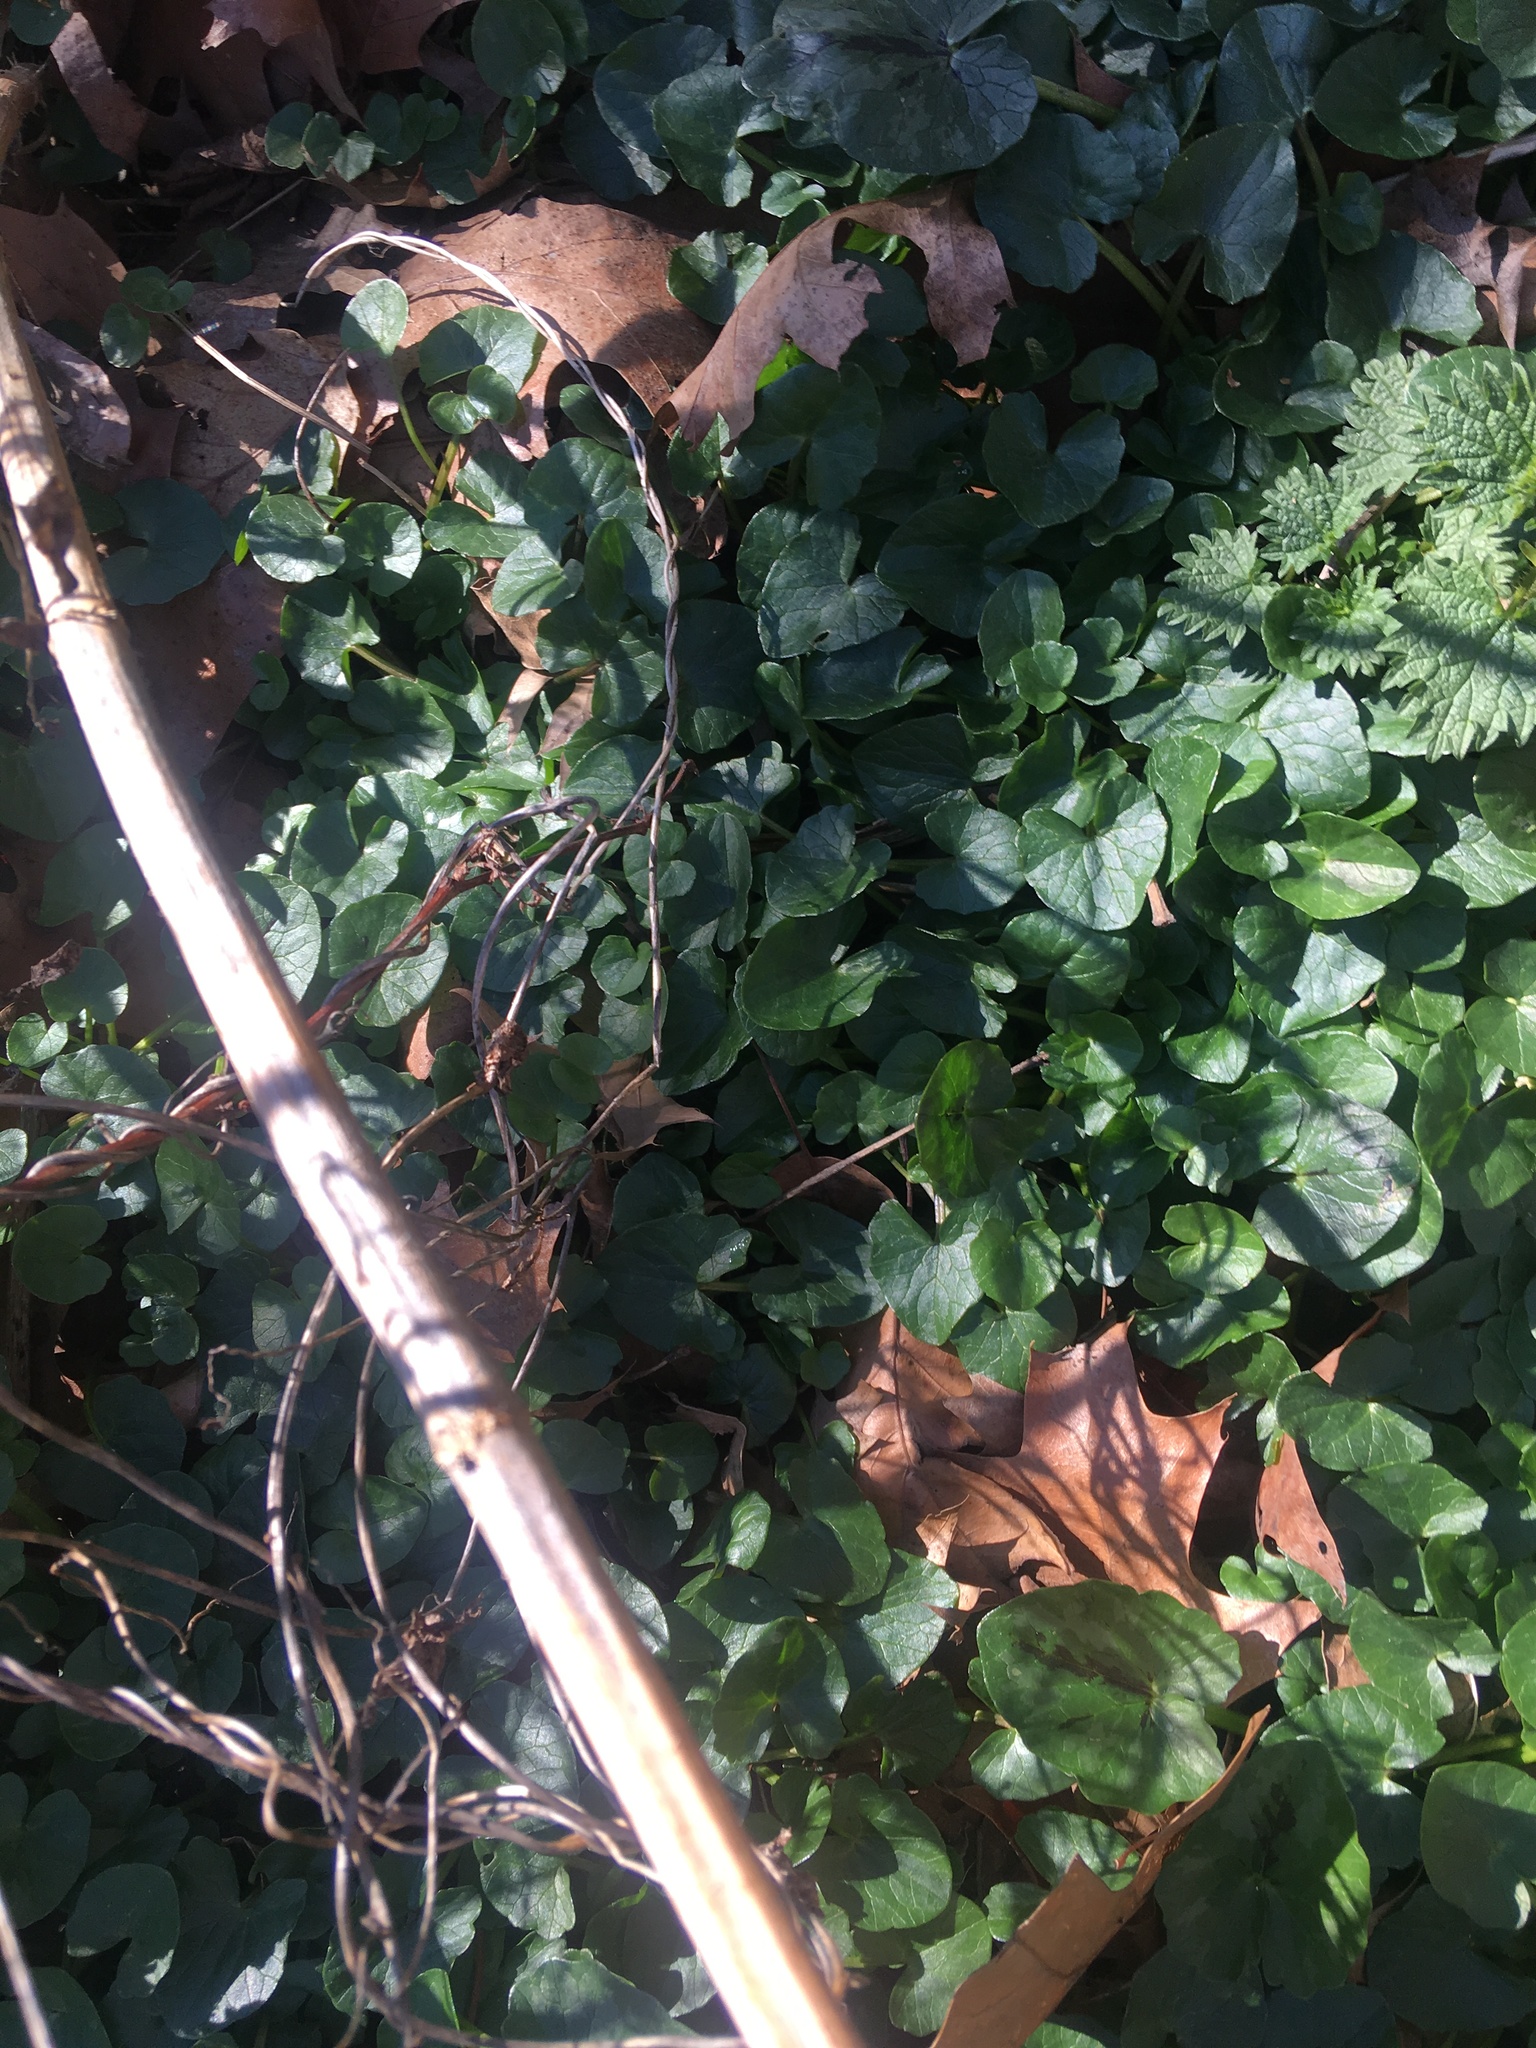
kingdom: Plantae
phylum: Tracheophyta
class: Magnoliopsida
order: Ranunculales
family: Ranunculaceae
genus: Ficaria
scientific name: Ficaria verna
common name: Lesser celandine
